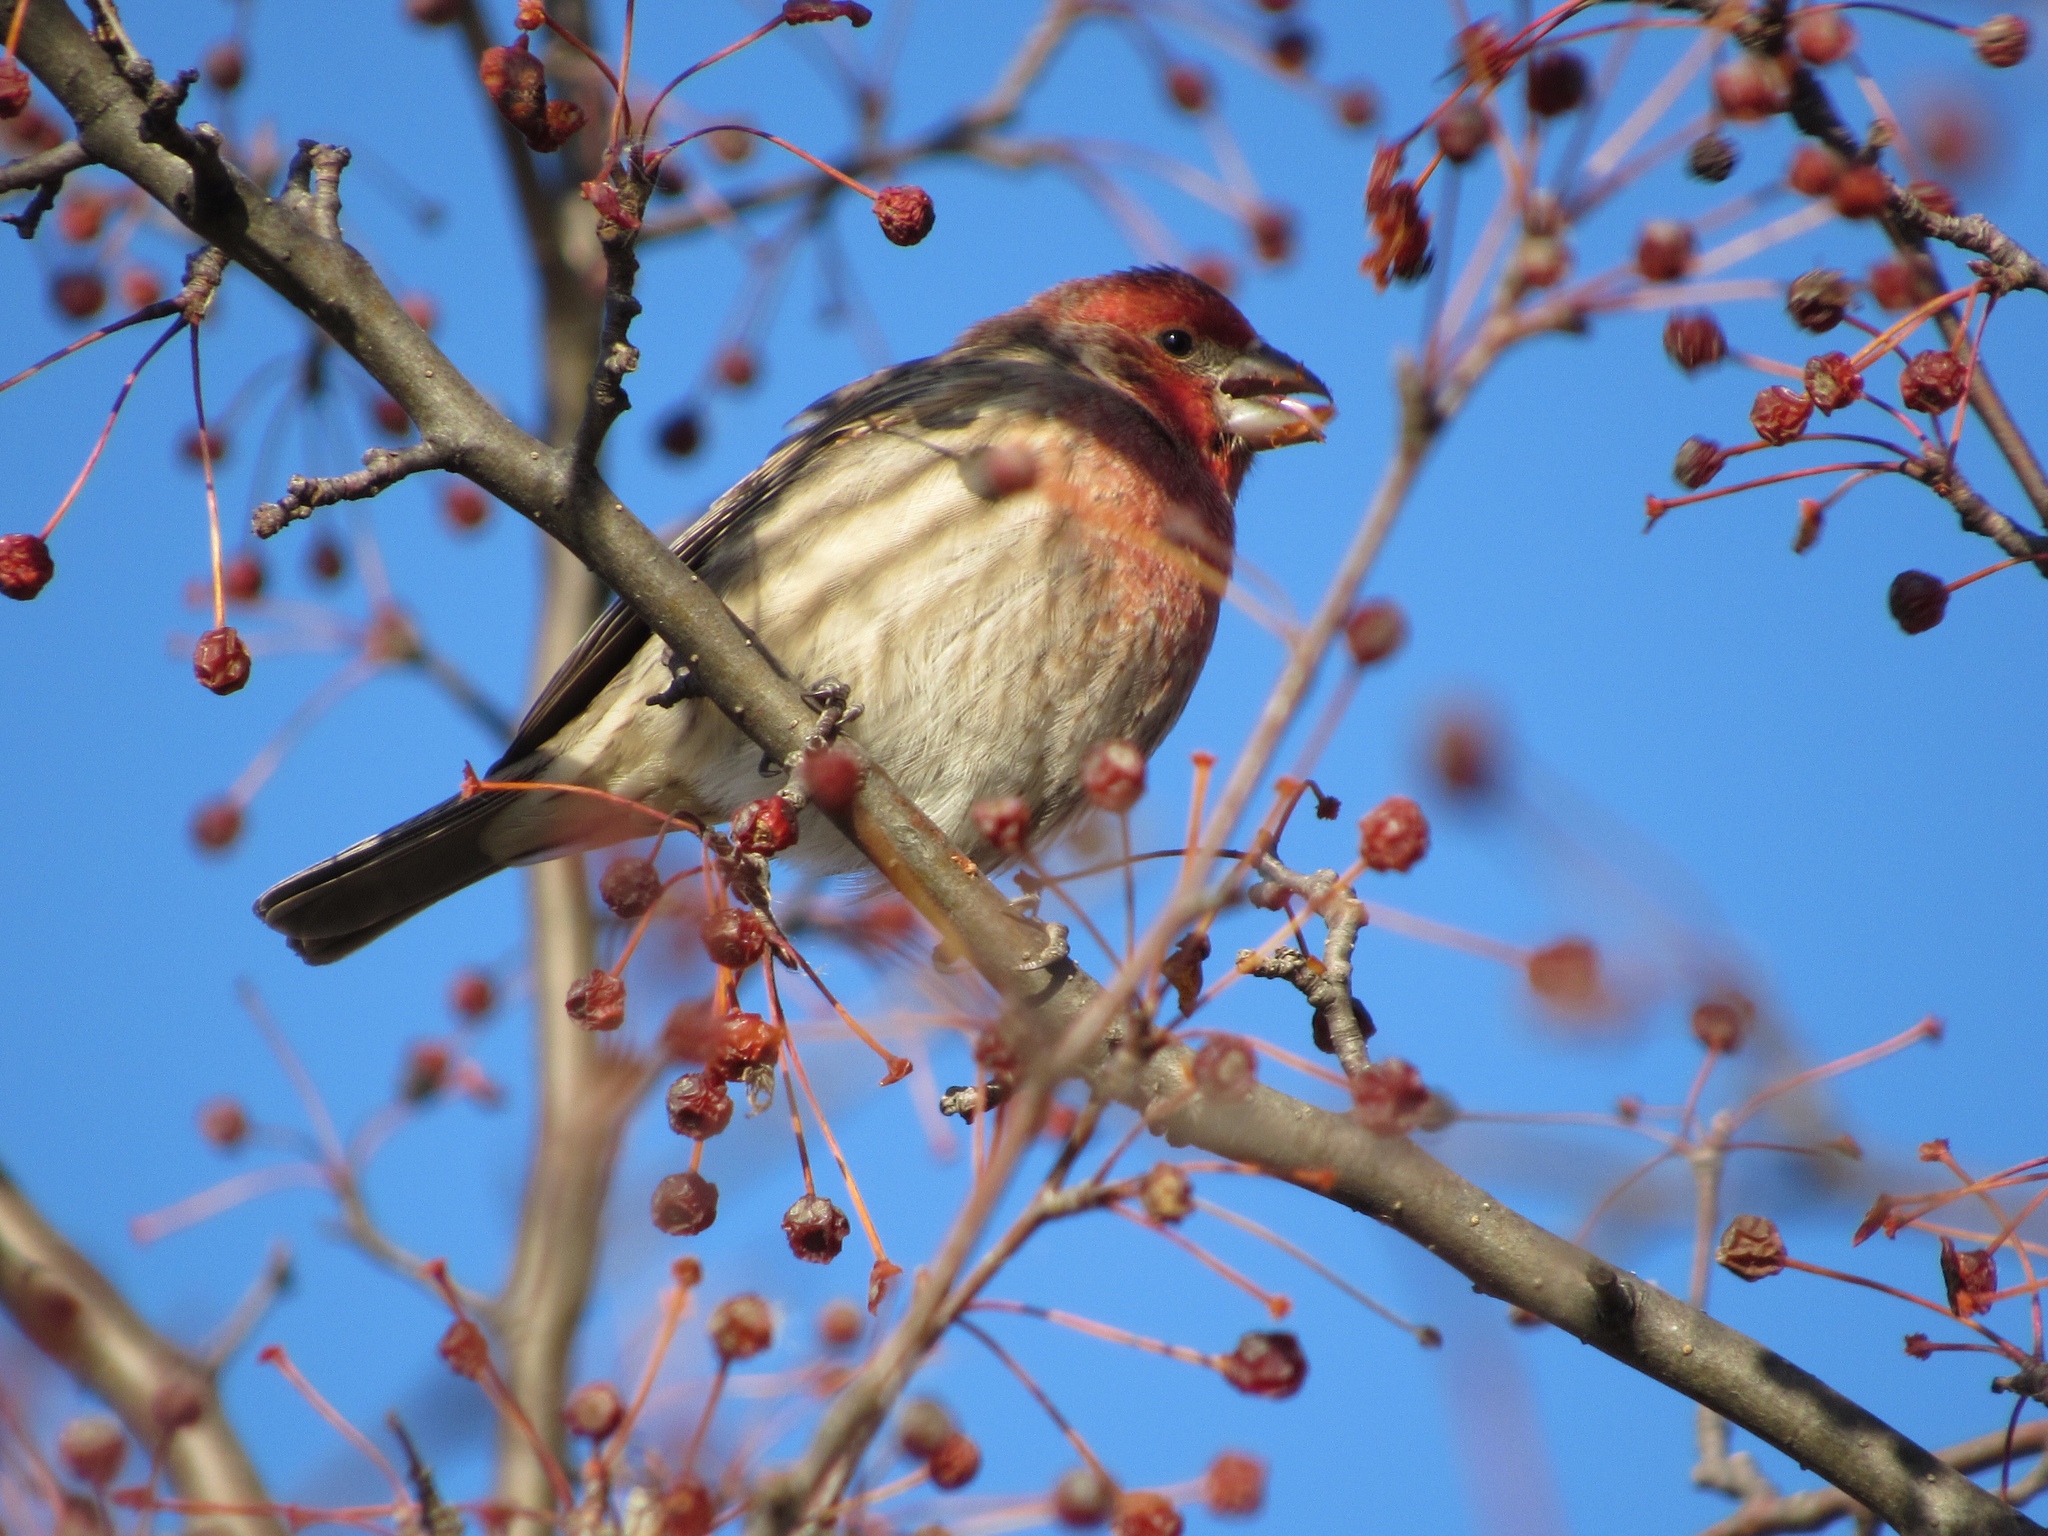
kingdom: Animalia
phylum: Chordata
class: Aves
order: Passeriformes
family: Fringillidae
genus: Haemorhous
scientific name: Haemorhous mexicanus
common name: House finch
